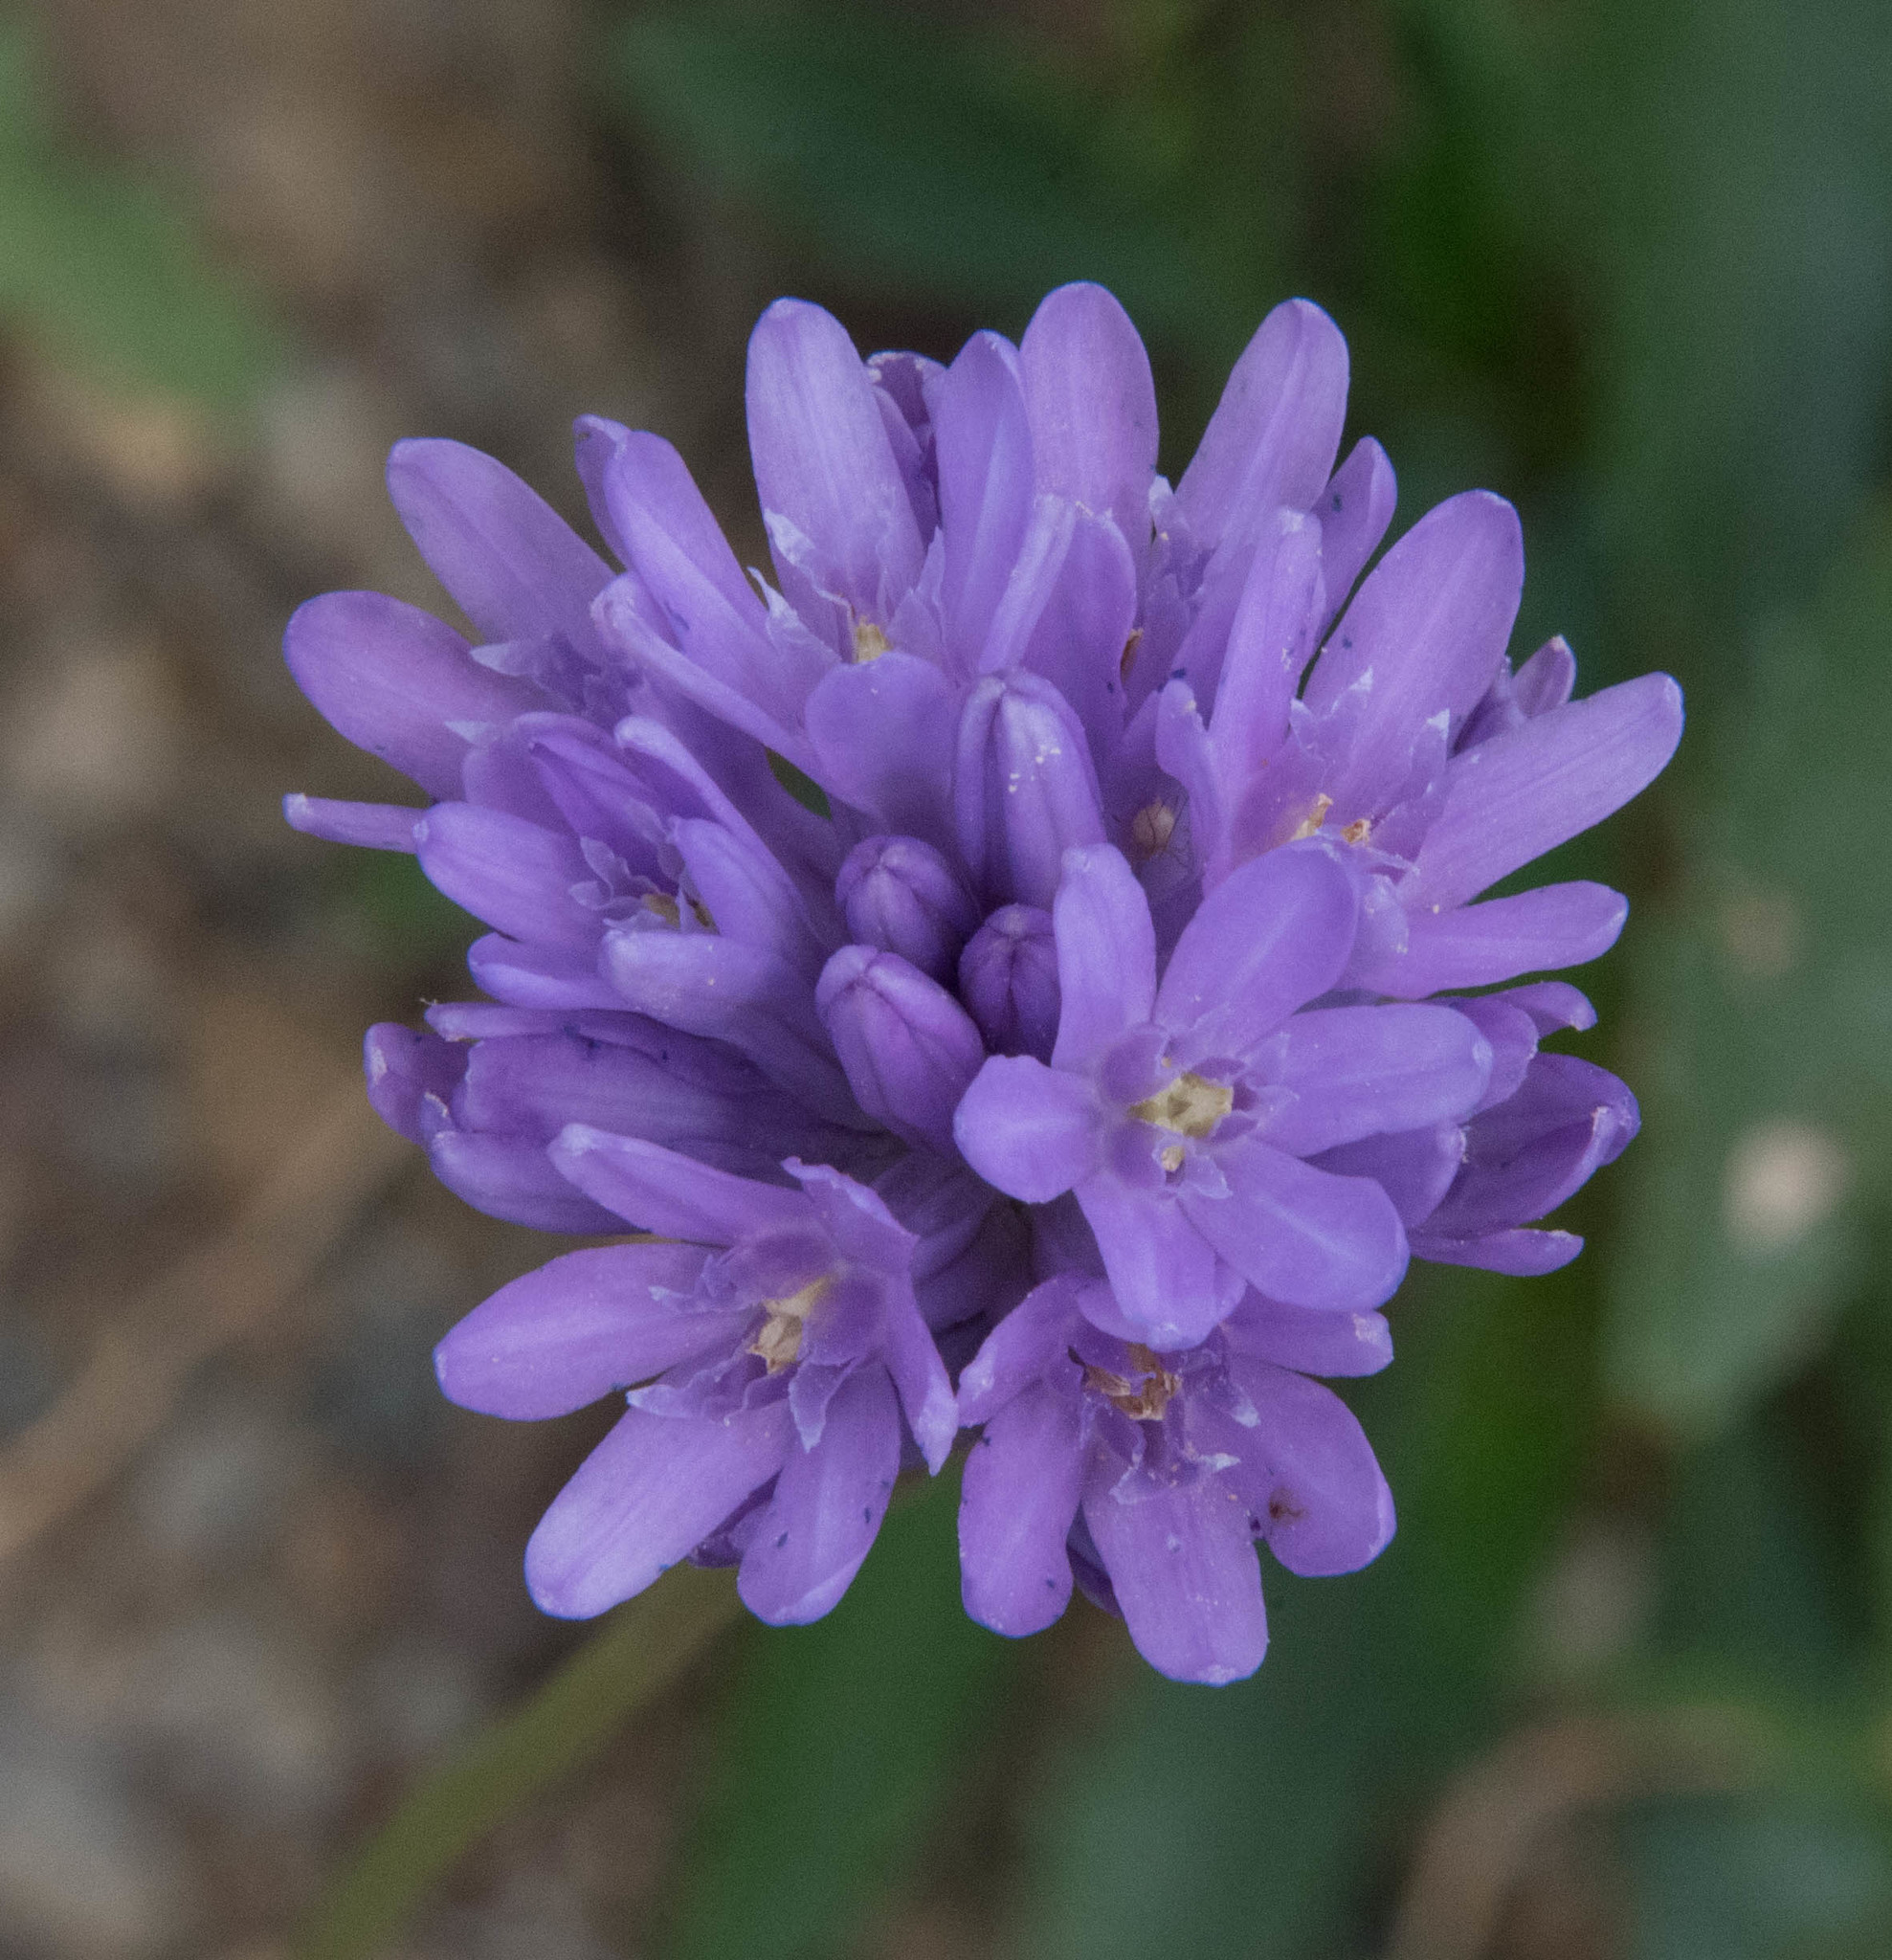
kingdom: Plantae
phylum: Tracheophyta
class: Liliopsida
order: Asparagales
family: Asparagaceae
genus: Dichelostemma
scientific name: Dichelostemma congestum
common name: Fork-tooth ookow
